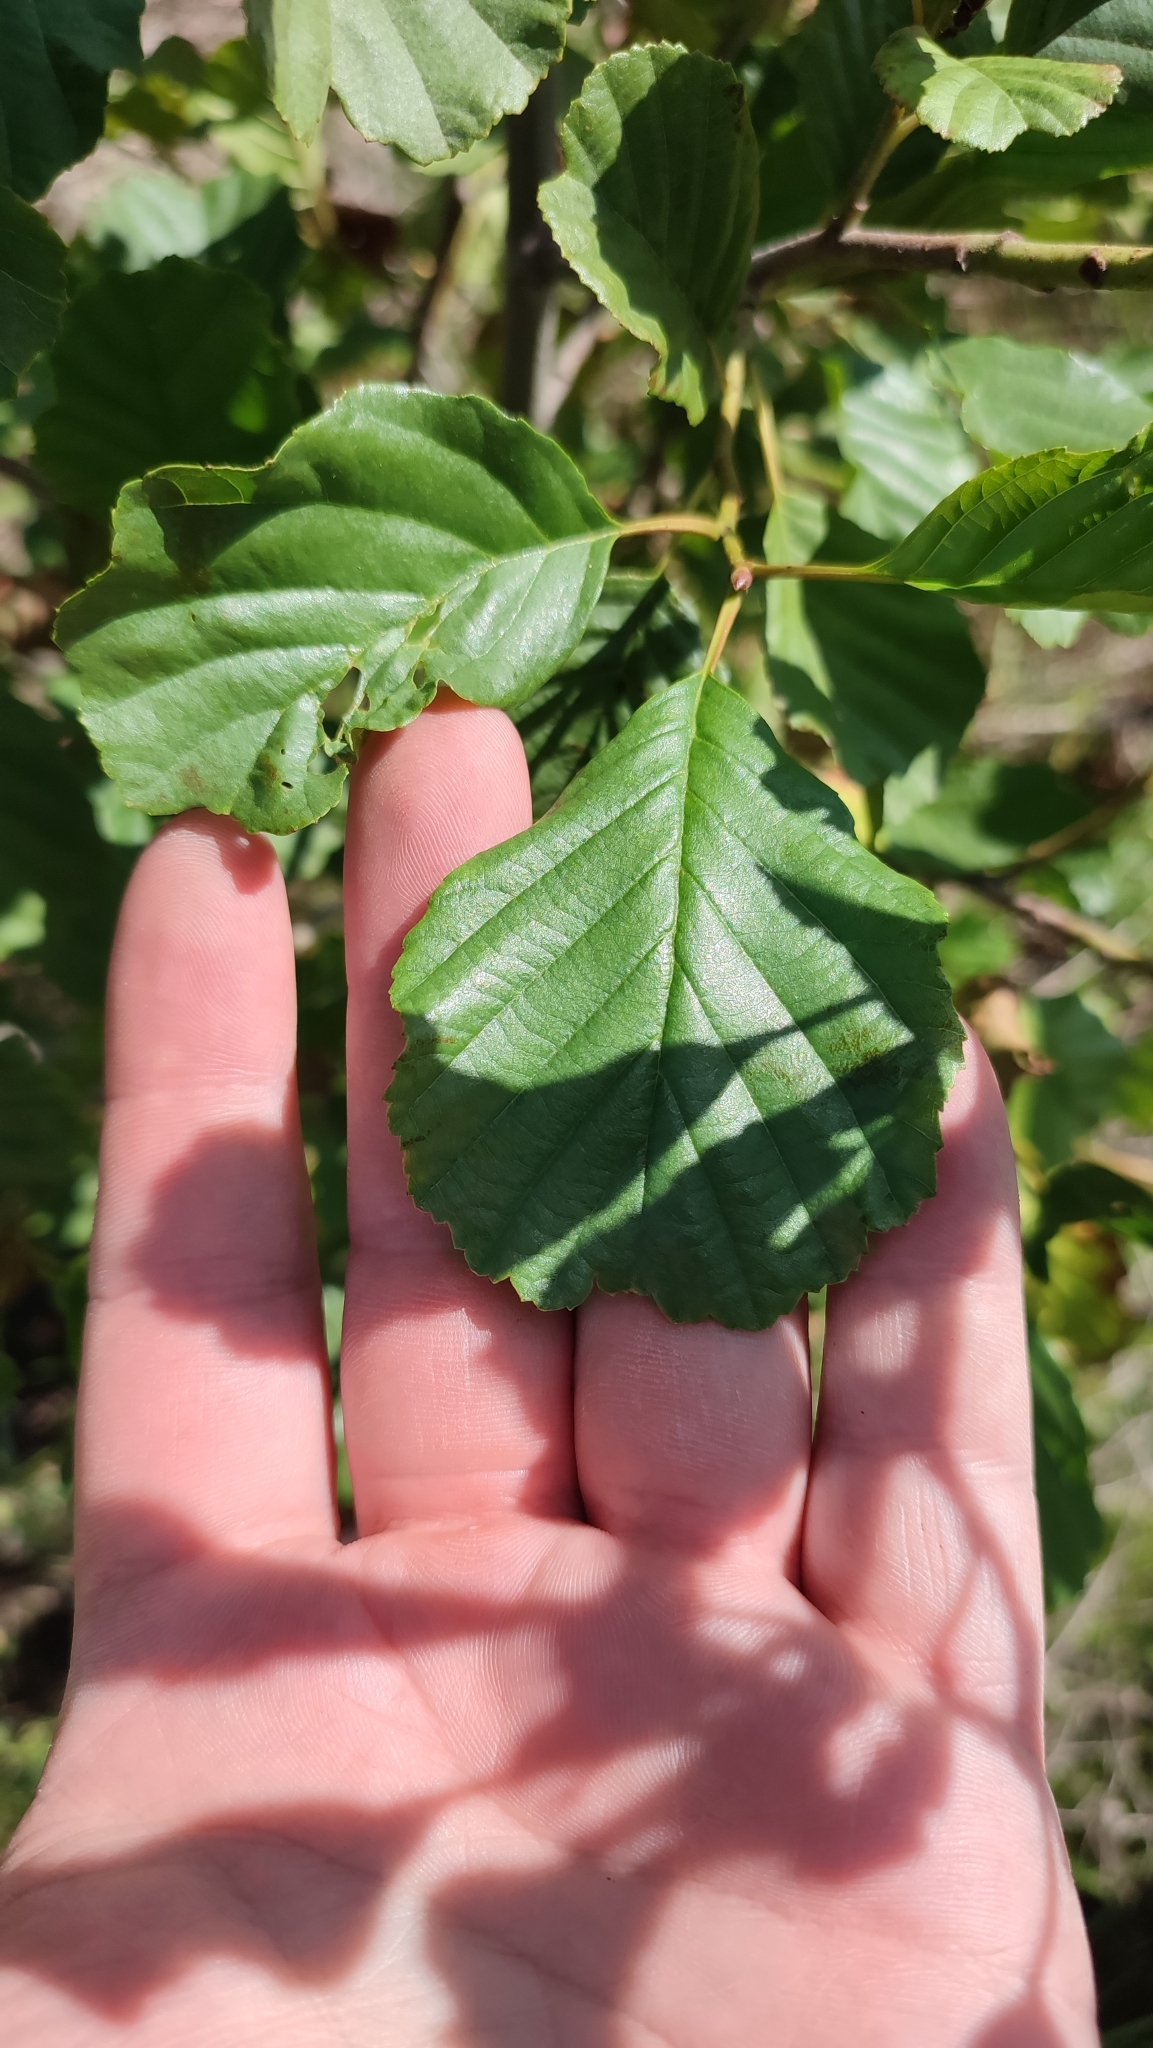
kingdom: Plantae
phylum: Tracheophyta
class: Magnoliopsida
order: Fagales
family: Betulaceae
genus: Alnus
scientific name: Alnus glutinosa
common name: Black alder
